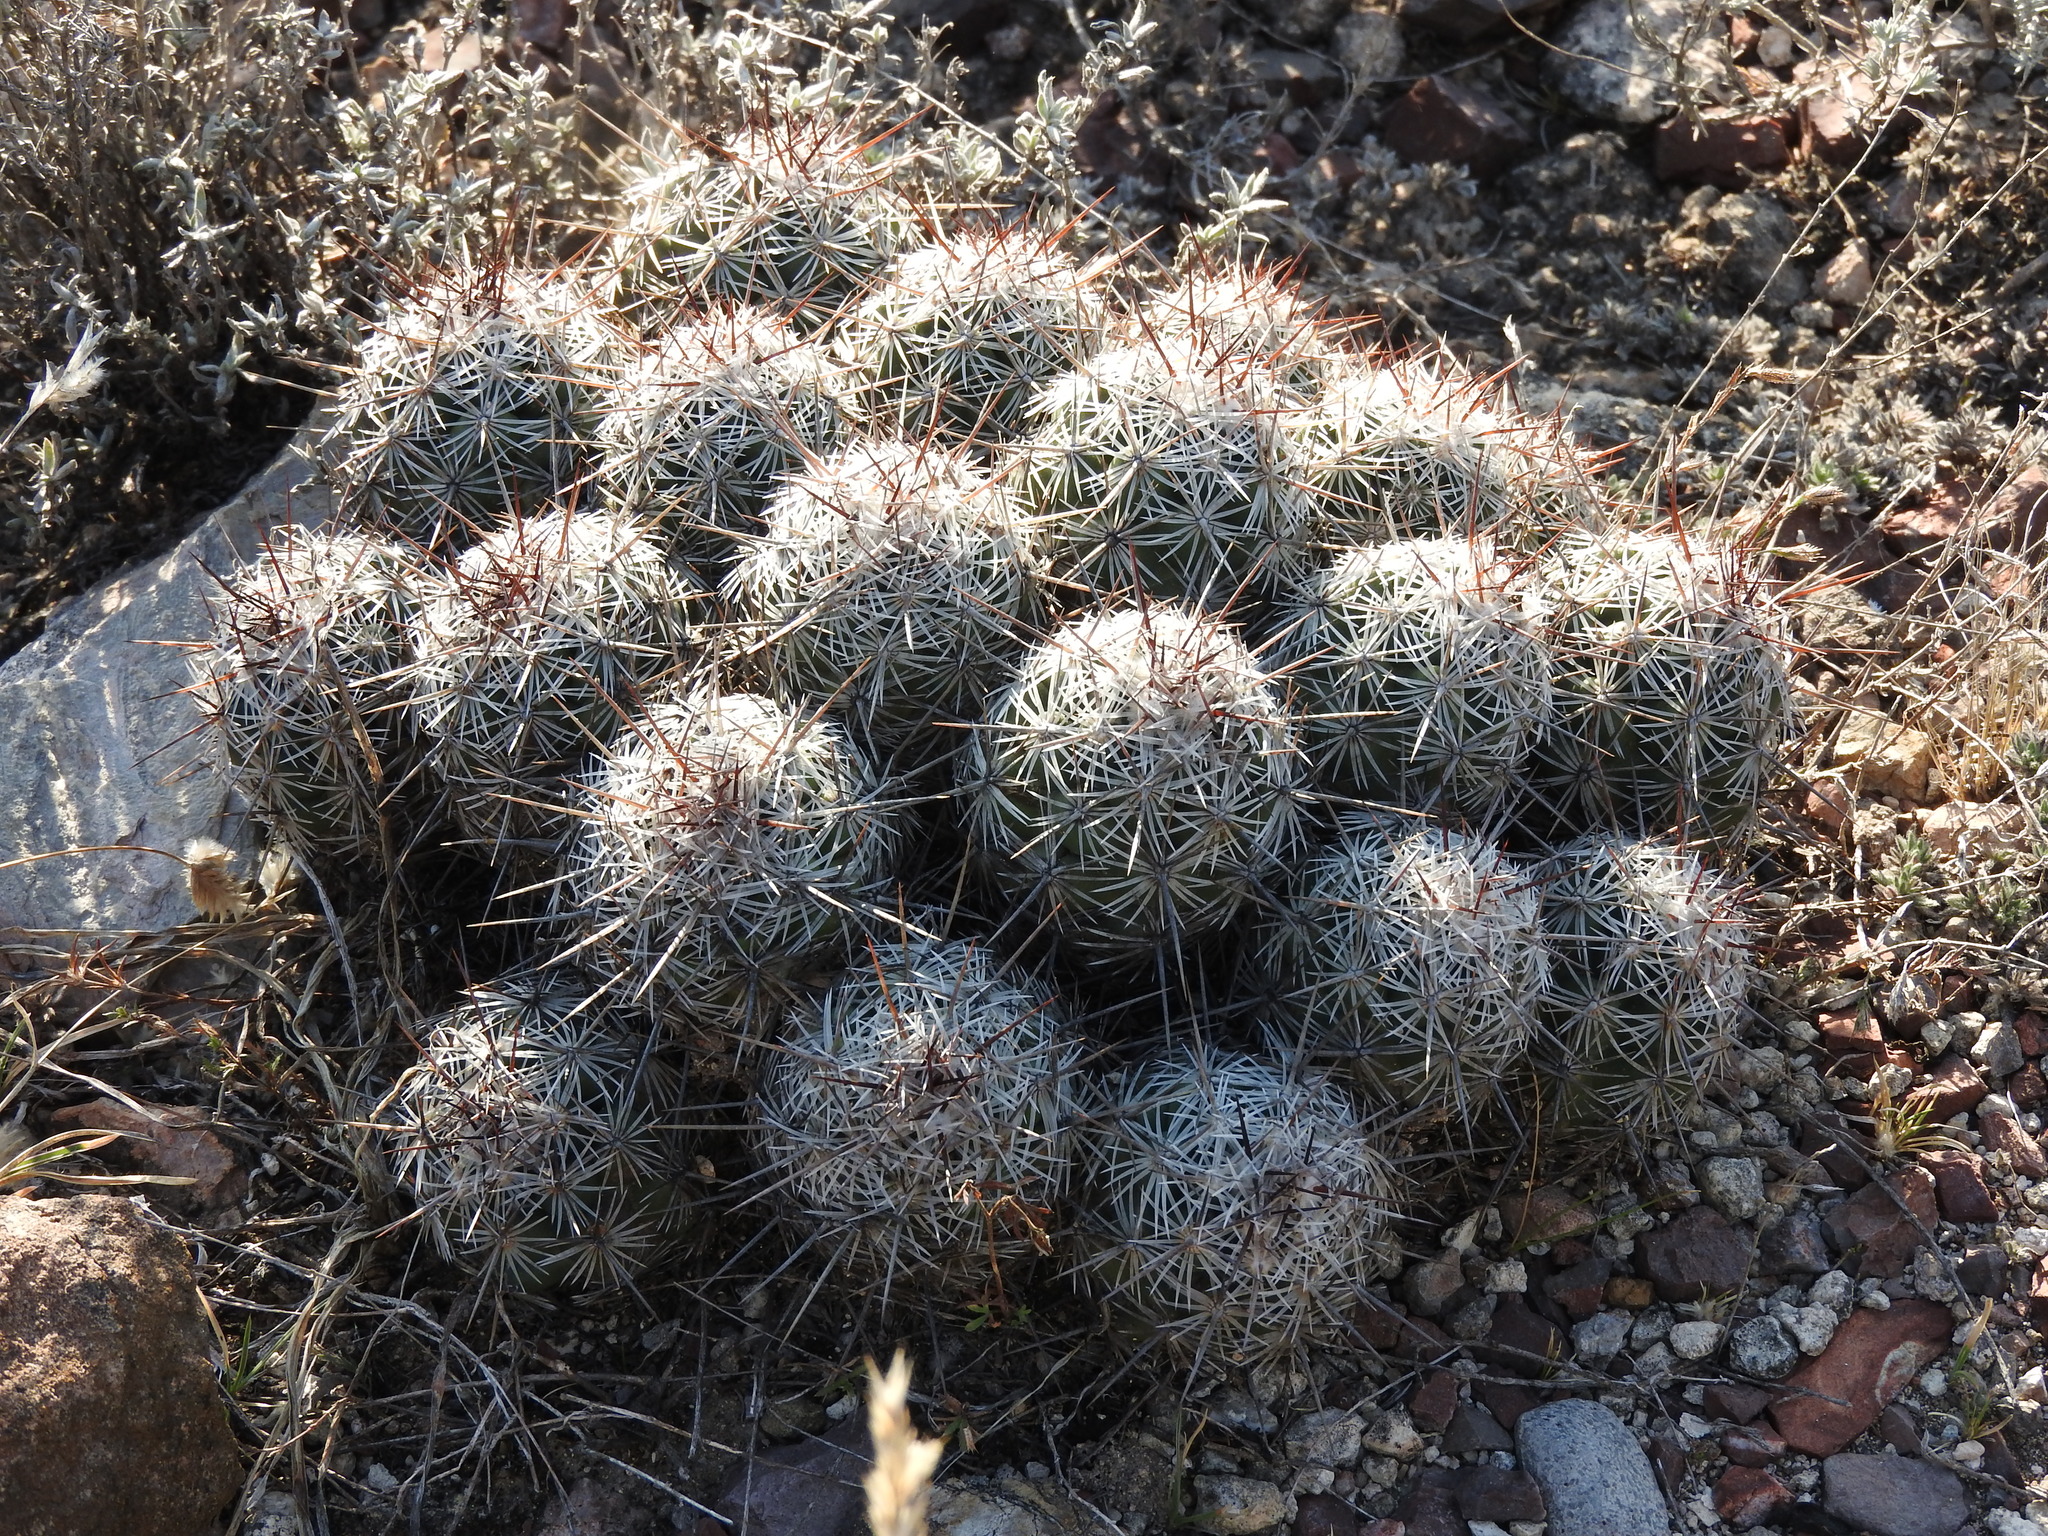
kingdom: Plantae
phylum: Tracheophyta
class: Magnoliopsida
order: Caryophyllales
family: Cactaceae
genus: Cochemiea
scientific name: Cochemiea conoidea
